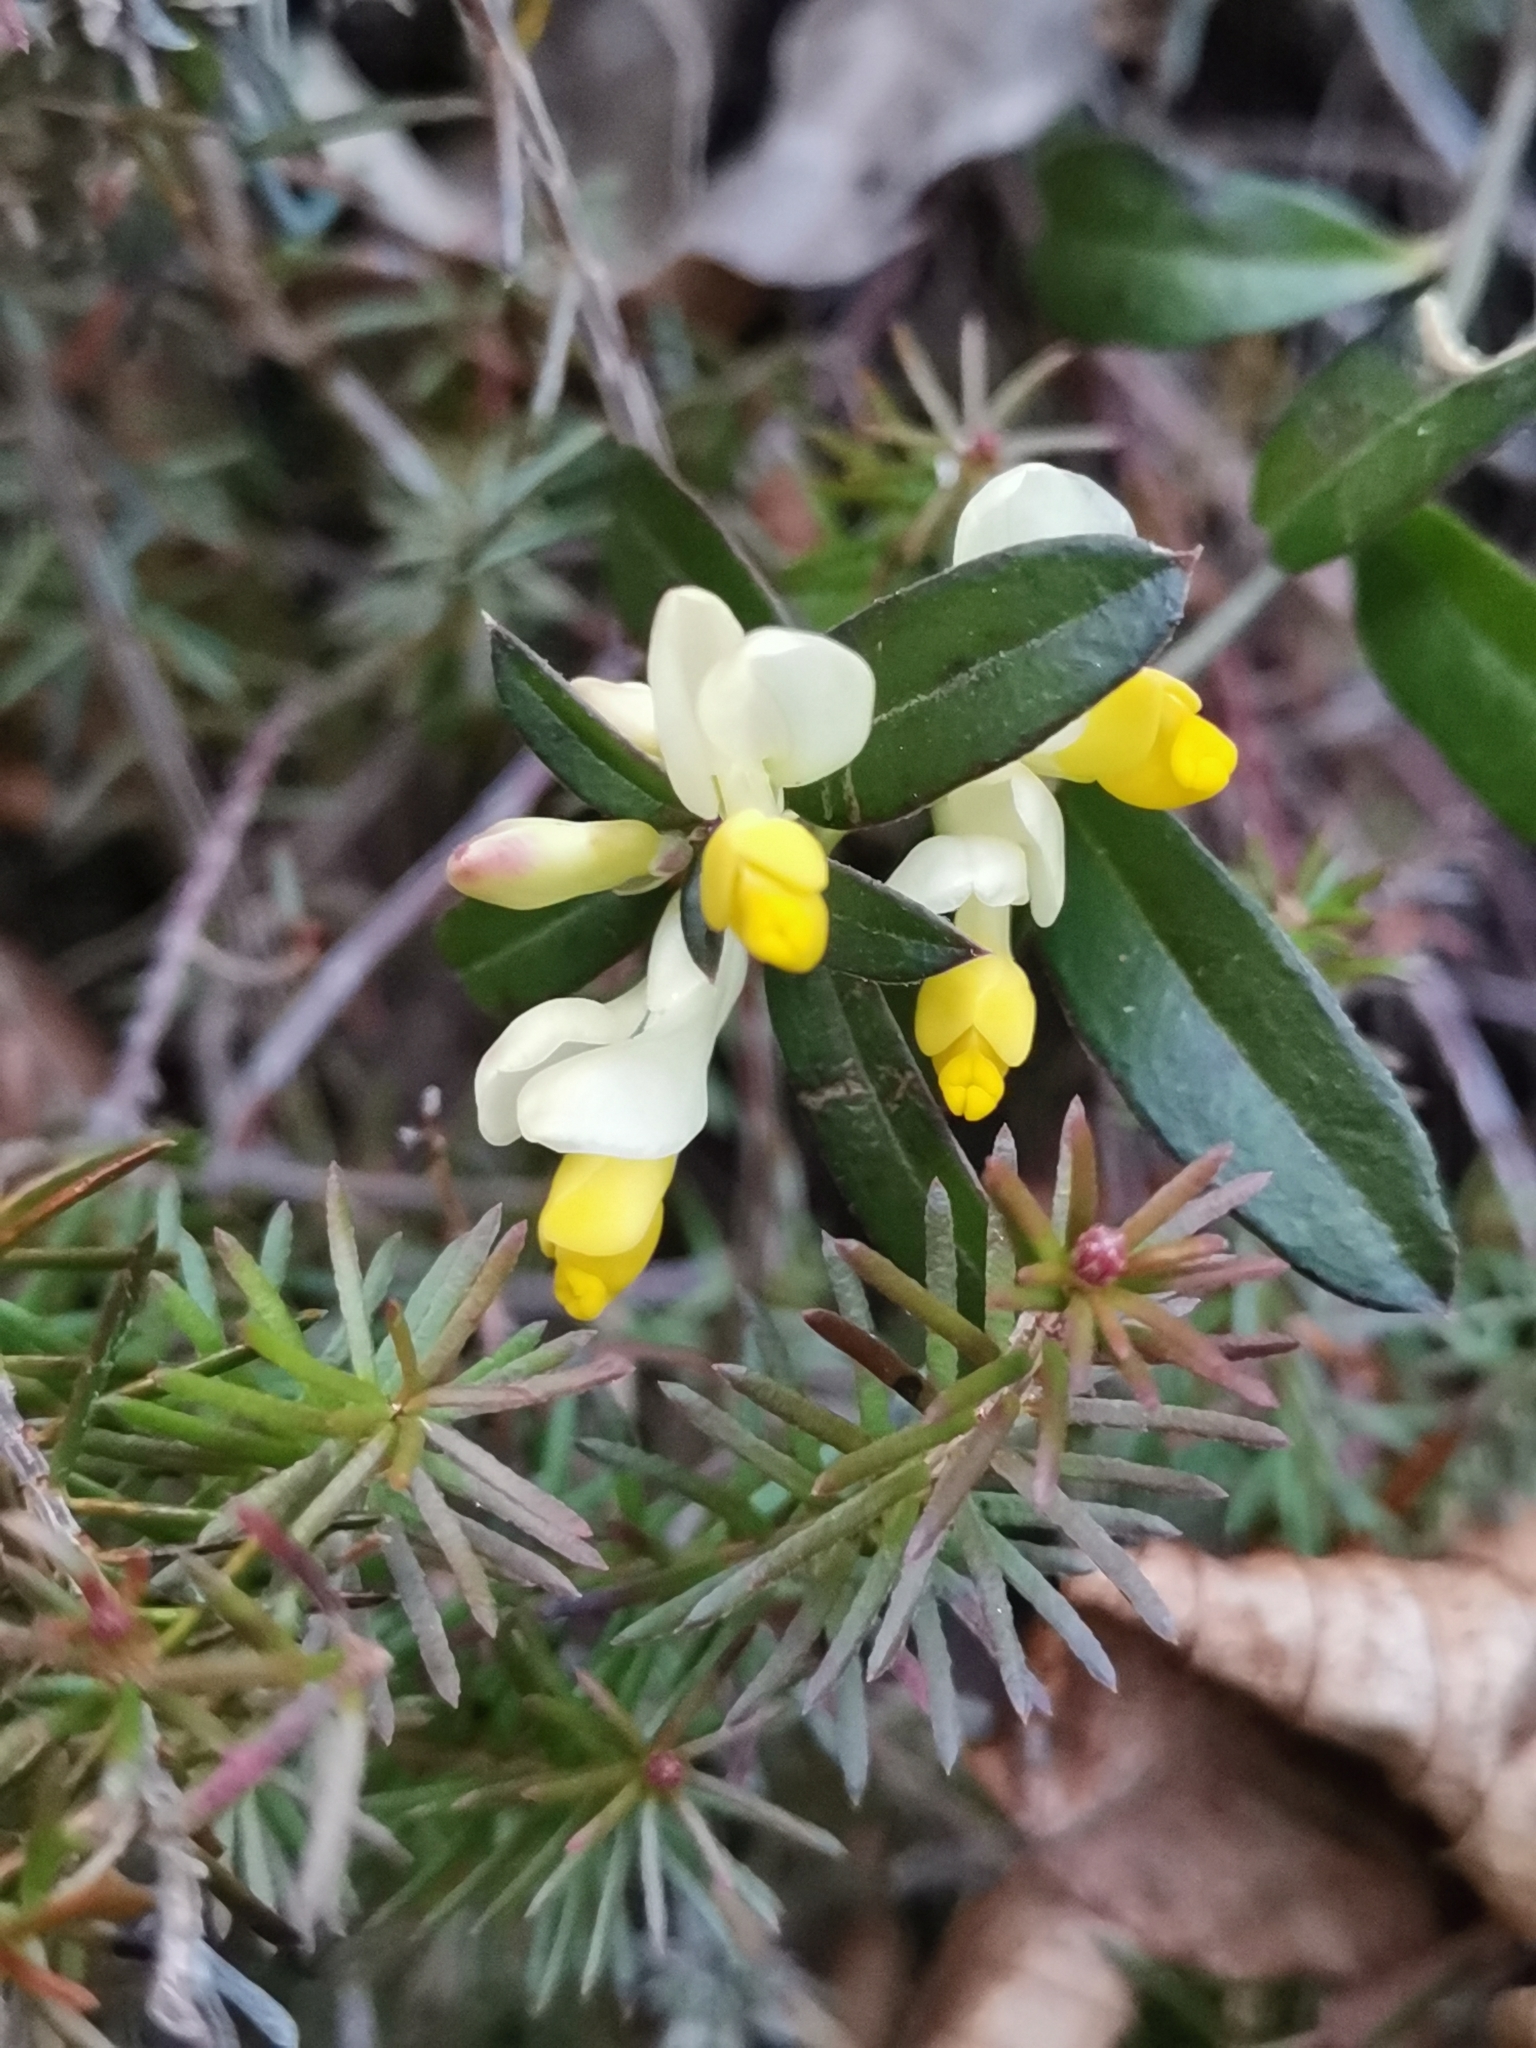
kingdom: Plantae
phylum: Tracheophyta
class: Magnoliopsida
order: Fabales
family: Polygalaceae
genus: Polygaloides
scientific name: Polygaloides chamaebuxus
